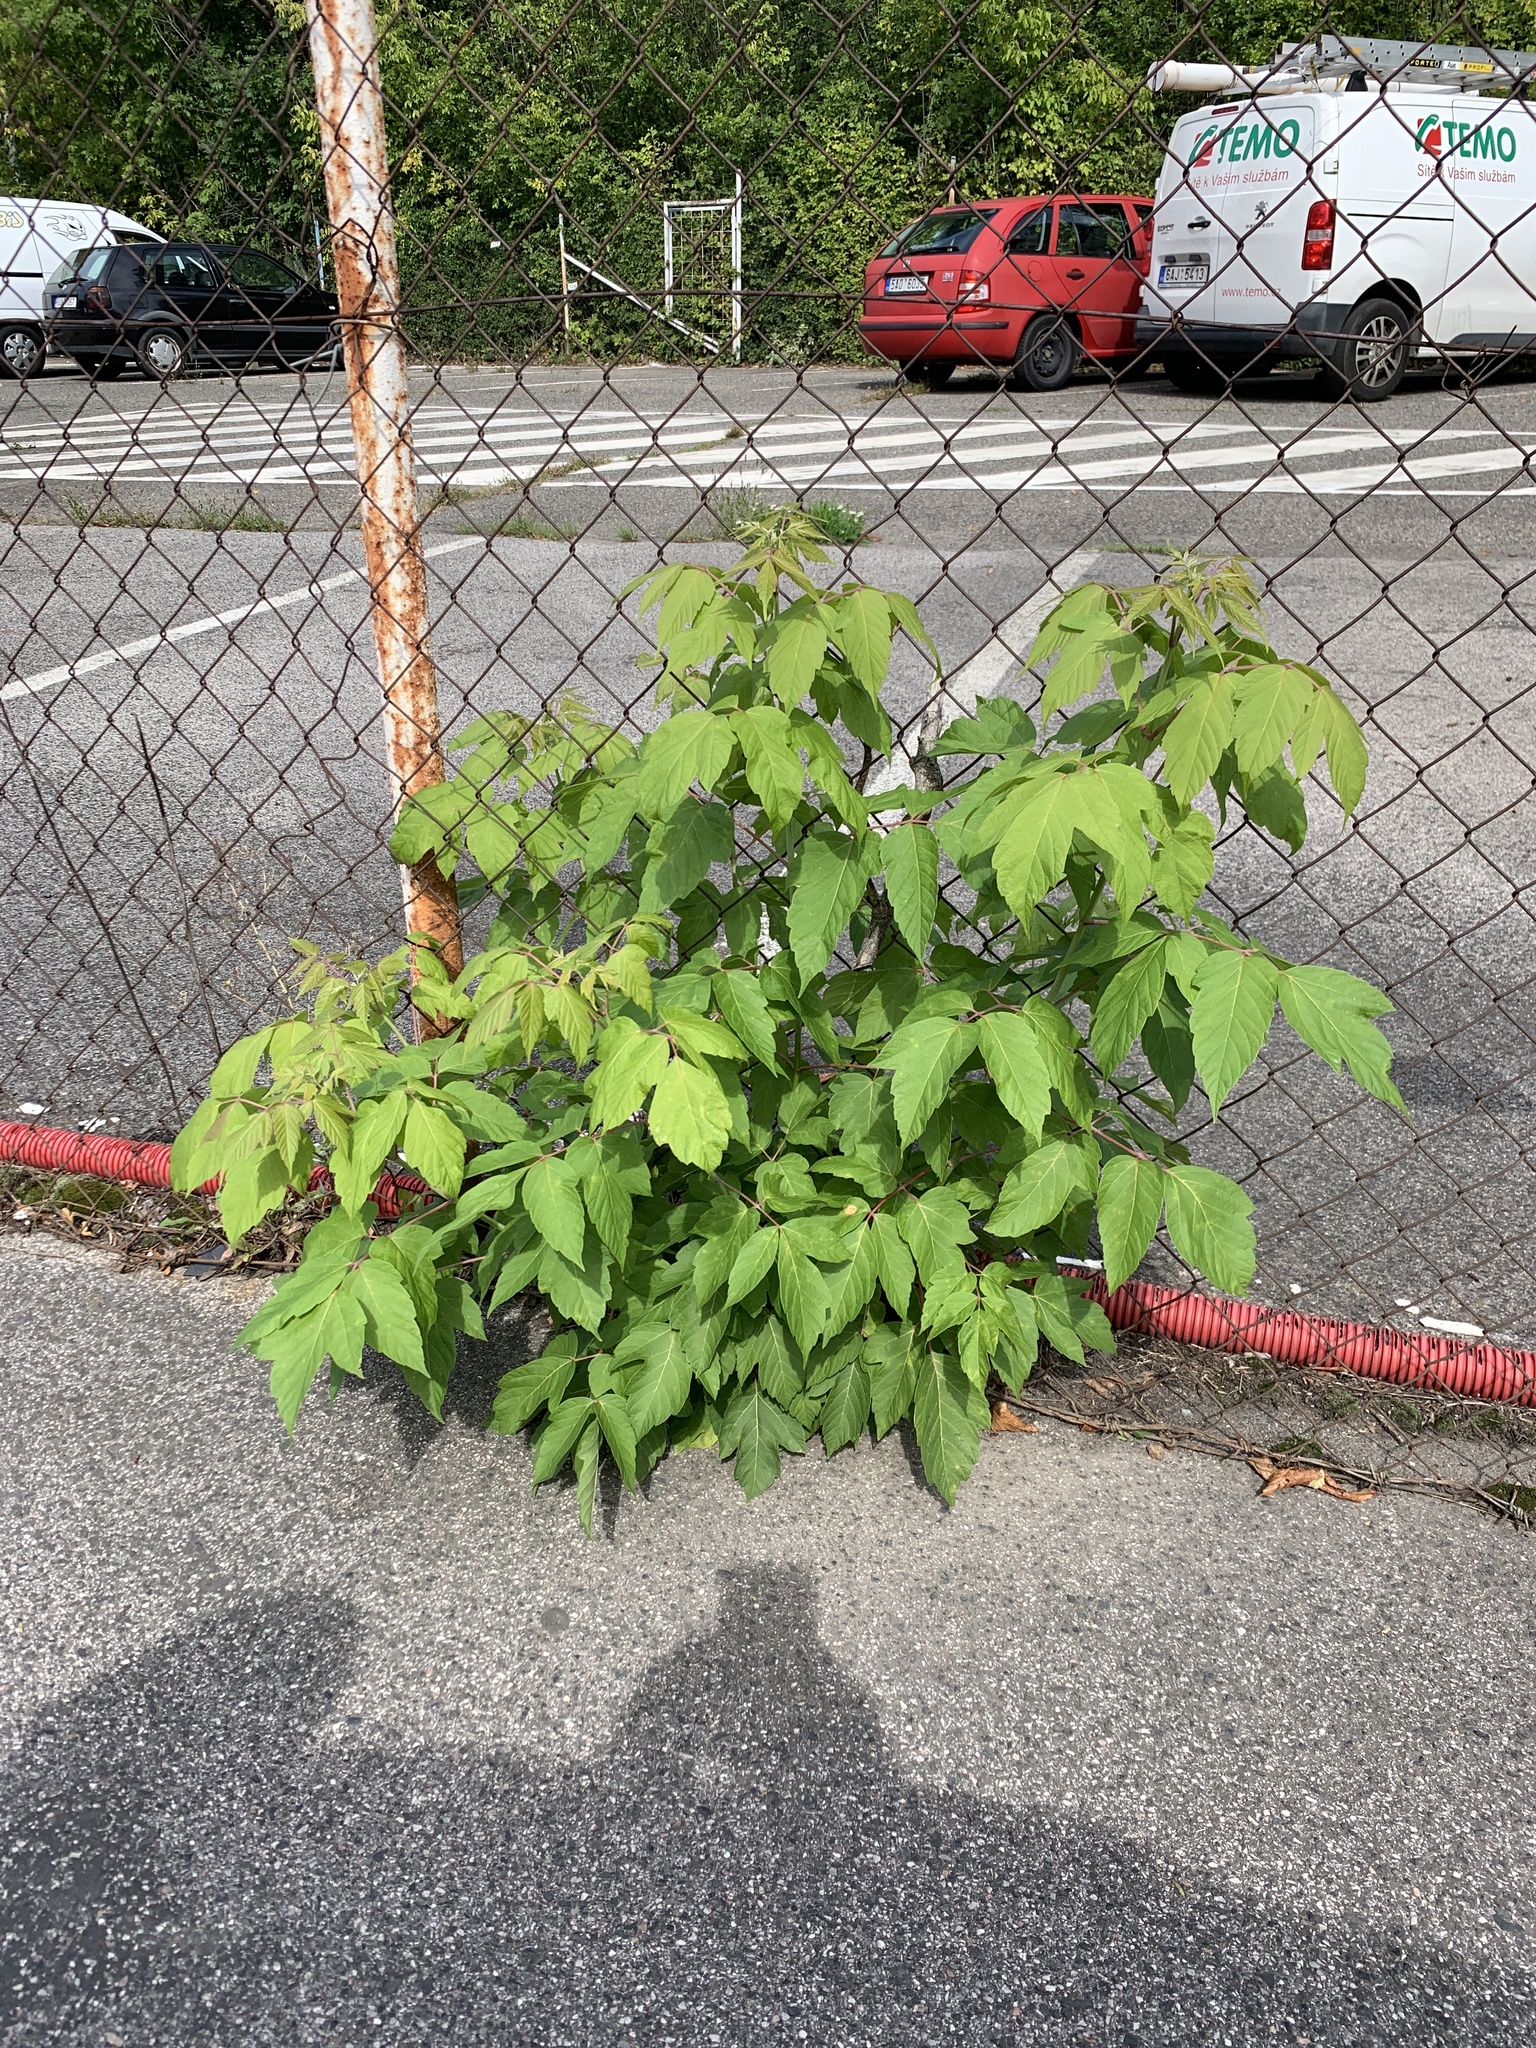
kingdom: Plantae
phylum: Tracheophyta
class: Magnoliopsida
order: Sapindales
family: Sapindaceae
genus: Acer
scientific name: Acer negundo
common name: Ashleaf maple
